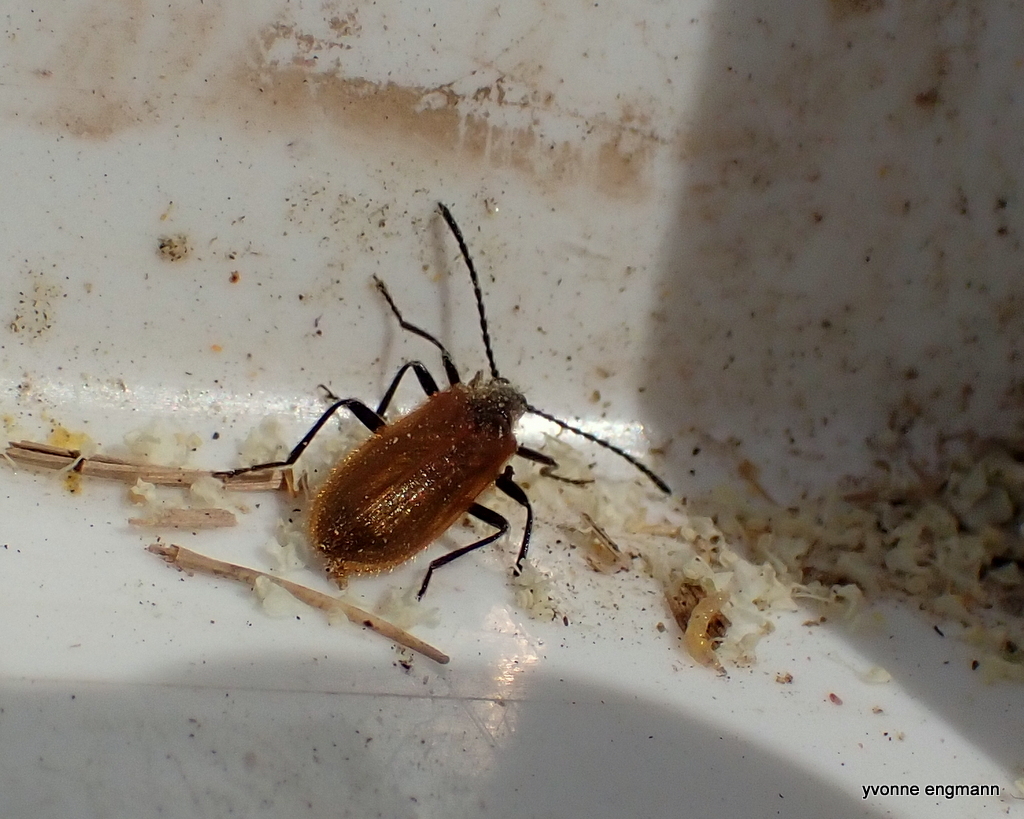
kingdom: Animalia
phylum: Arthropoda
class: Insecta
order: Coleoptera
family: Tenebrionidae
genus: Lagria
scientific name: Lagria hirta
